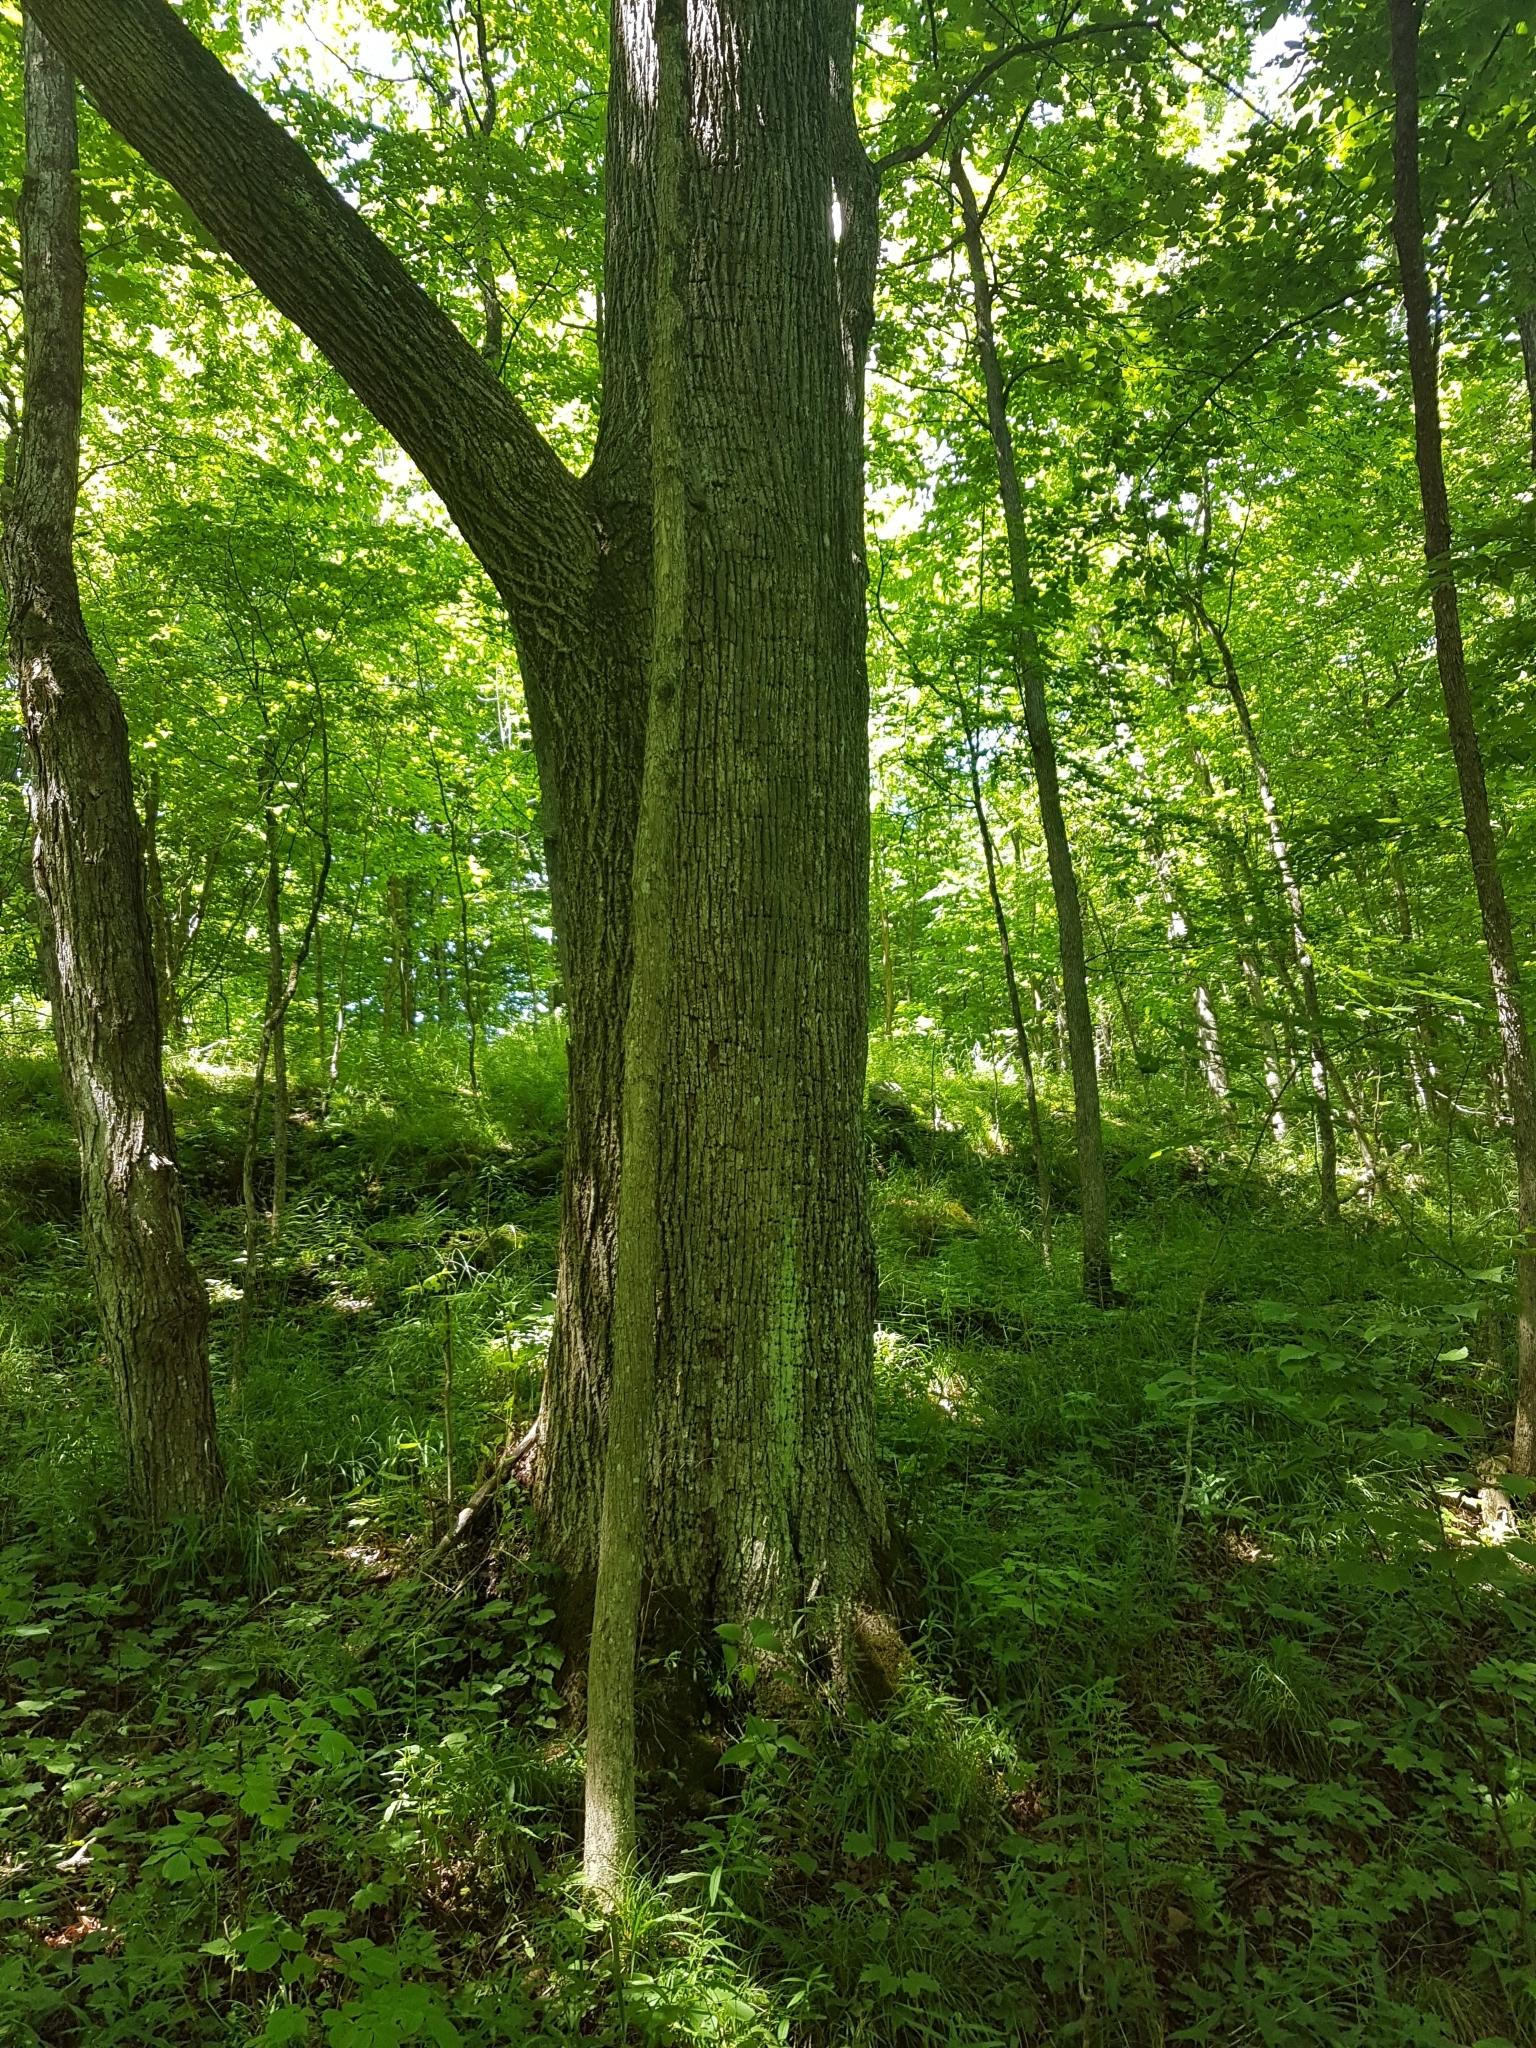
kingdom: Plantae
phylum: Tracheophyta
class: Magnoliopsida
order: Malvales
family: Malvaceae
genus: Tilia
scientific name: Tilia americana
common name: Basswood
